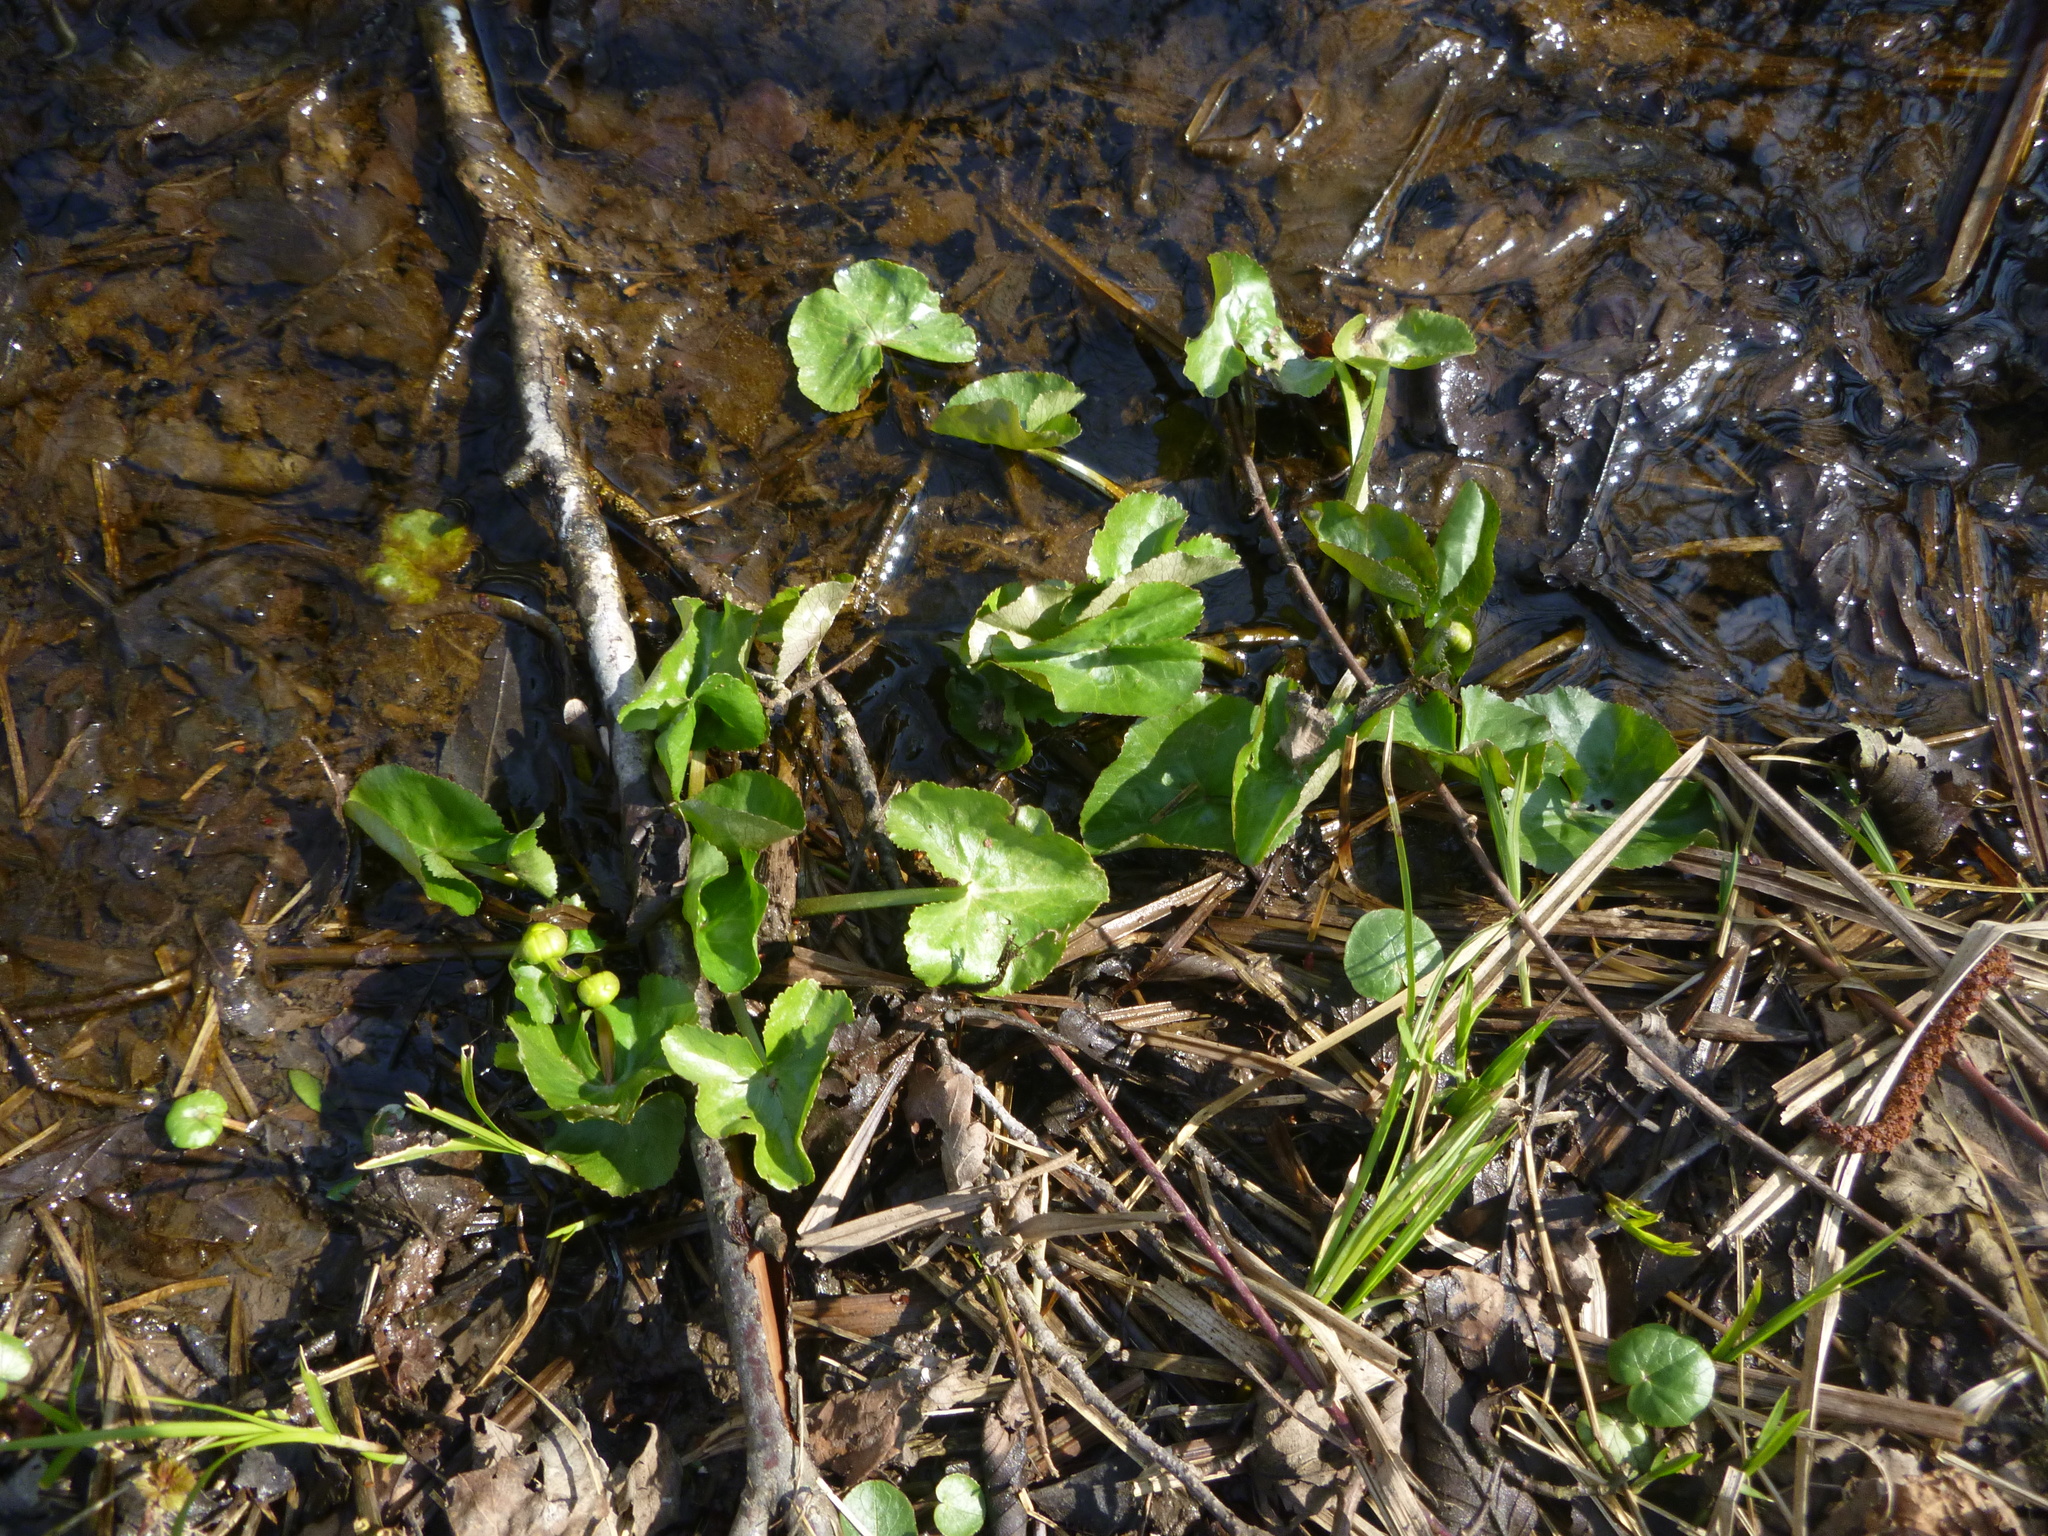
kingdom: Plantae
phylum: Tracheophyta
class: Magnoliopsida
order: Ranunculales
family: Ranunculaceae
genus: Caltha
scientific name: Caltha palustris
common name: Marsh marigold
